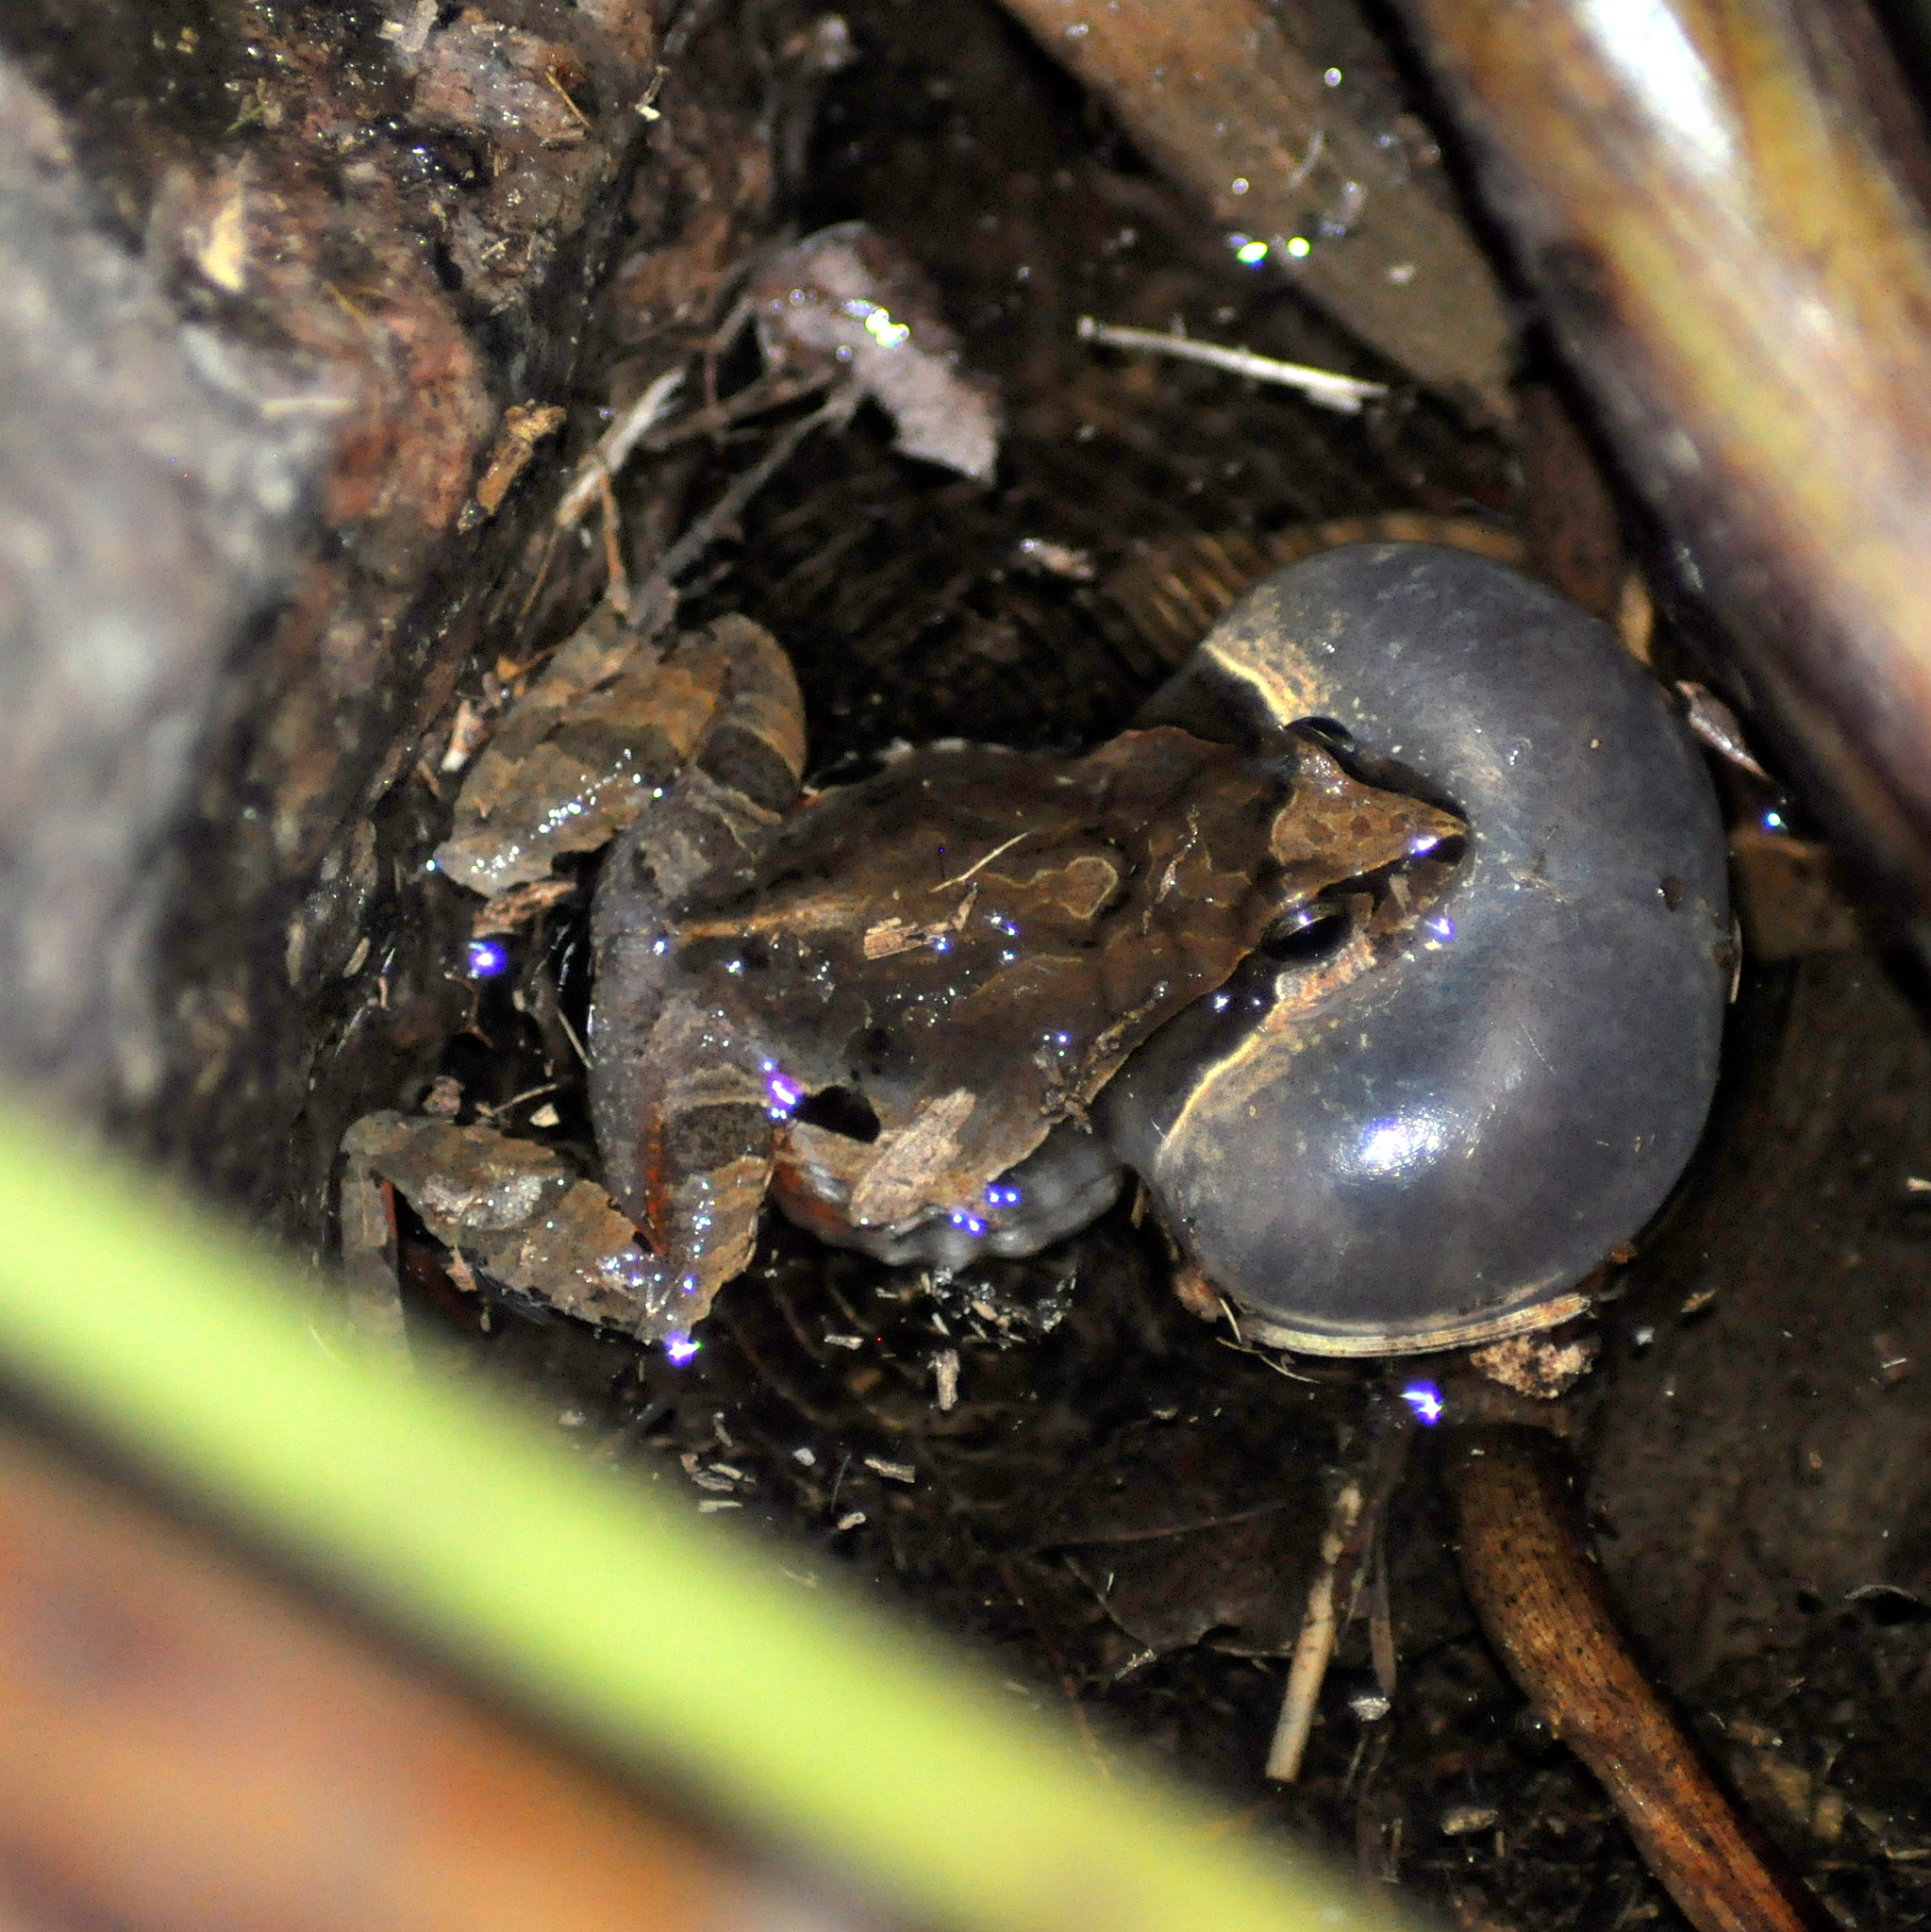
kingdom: Animalia
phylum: Chordata
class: Amphibia
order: Anura
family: Leptodactylidae
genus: Physalaemus
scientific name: Physalaemus gracilis
